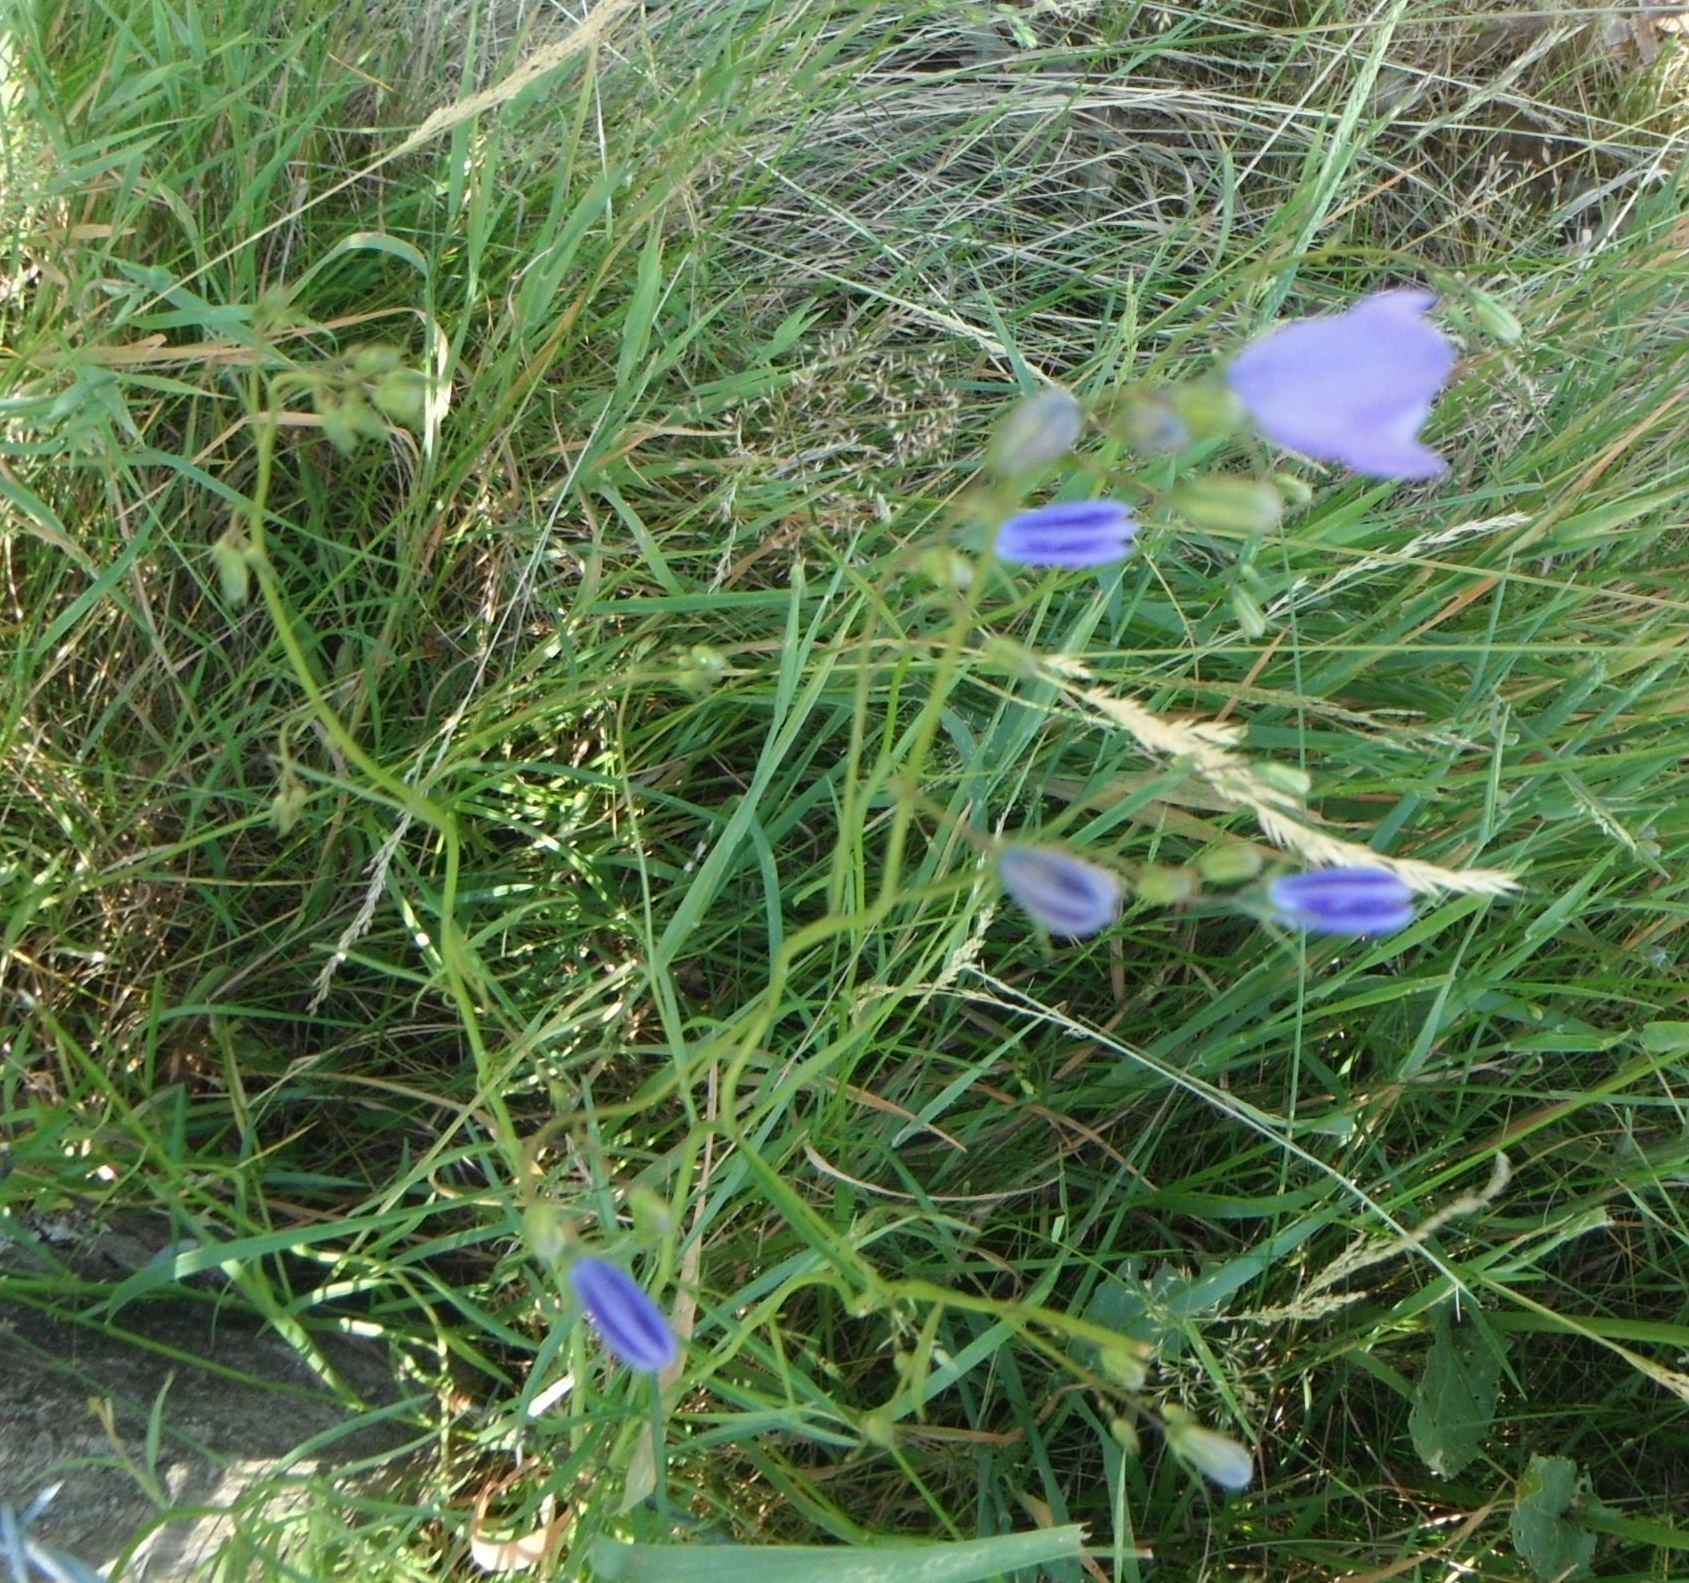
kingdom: Plantae
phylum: Tracheophyta
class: Magnoliopsida
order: Asterales
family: Campanulaceae
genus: Campanula
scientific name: Campanula rotundifolia
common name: Harebell
